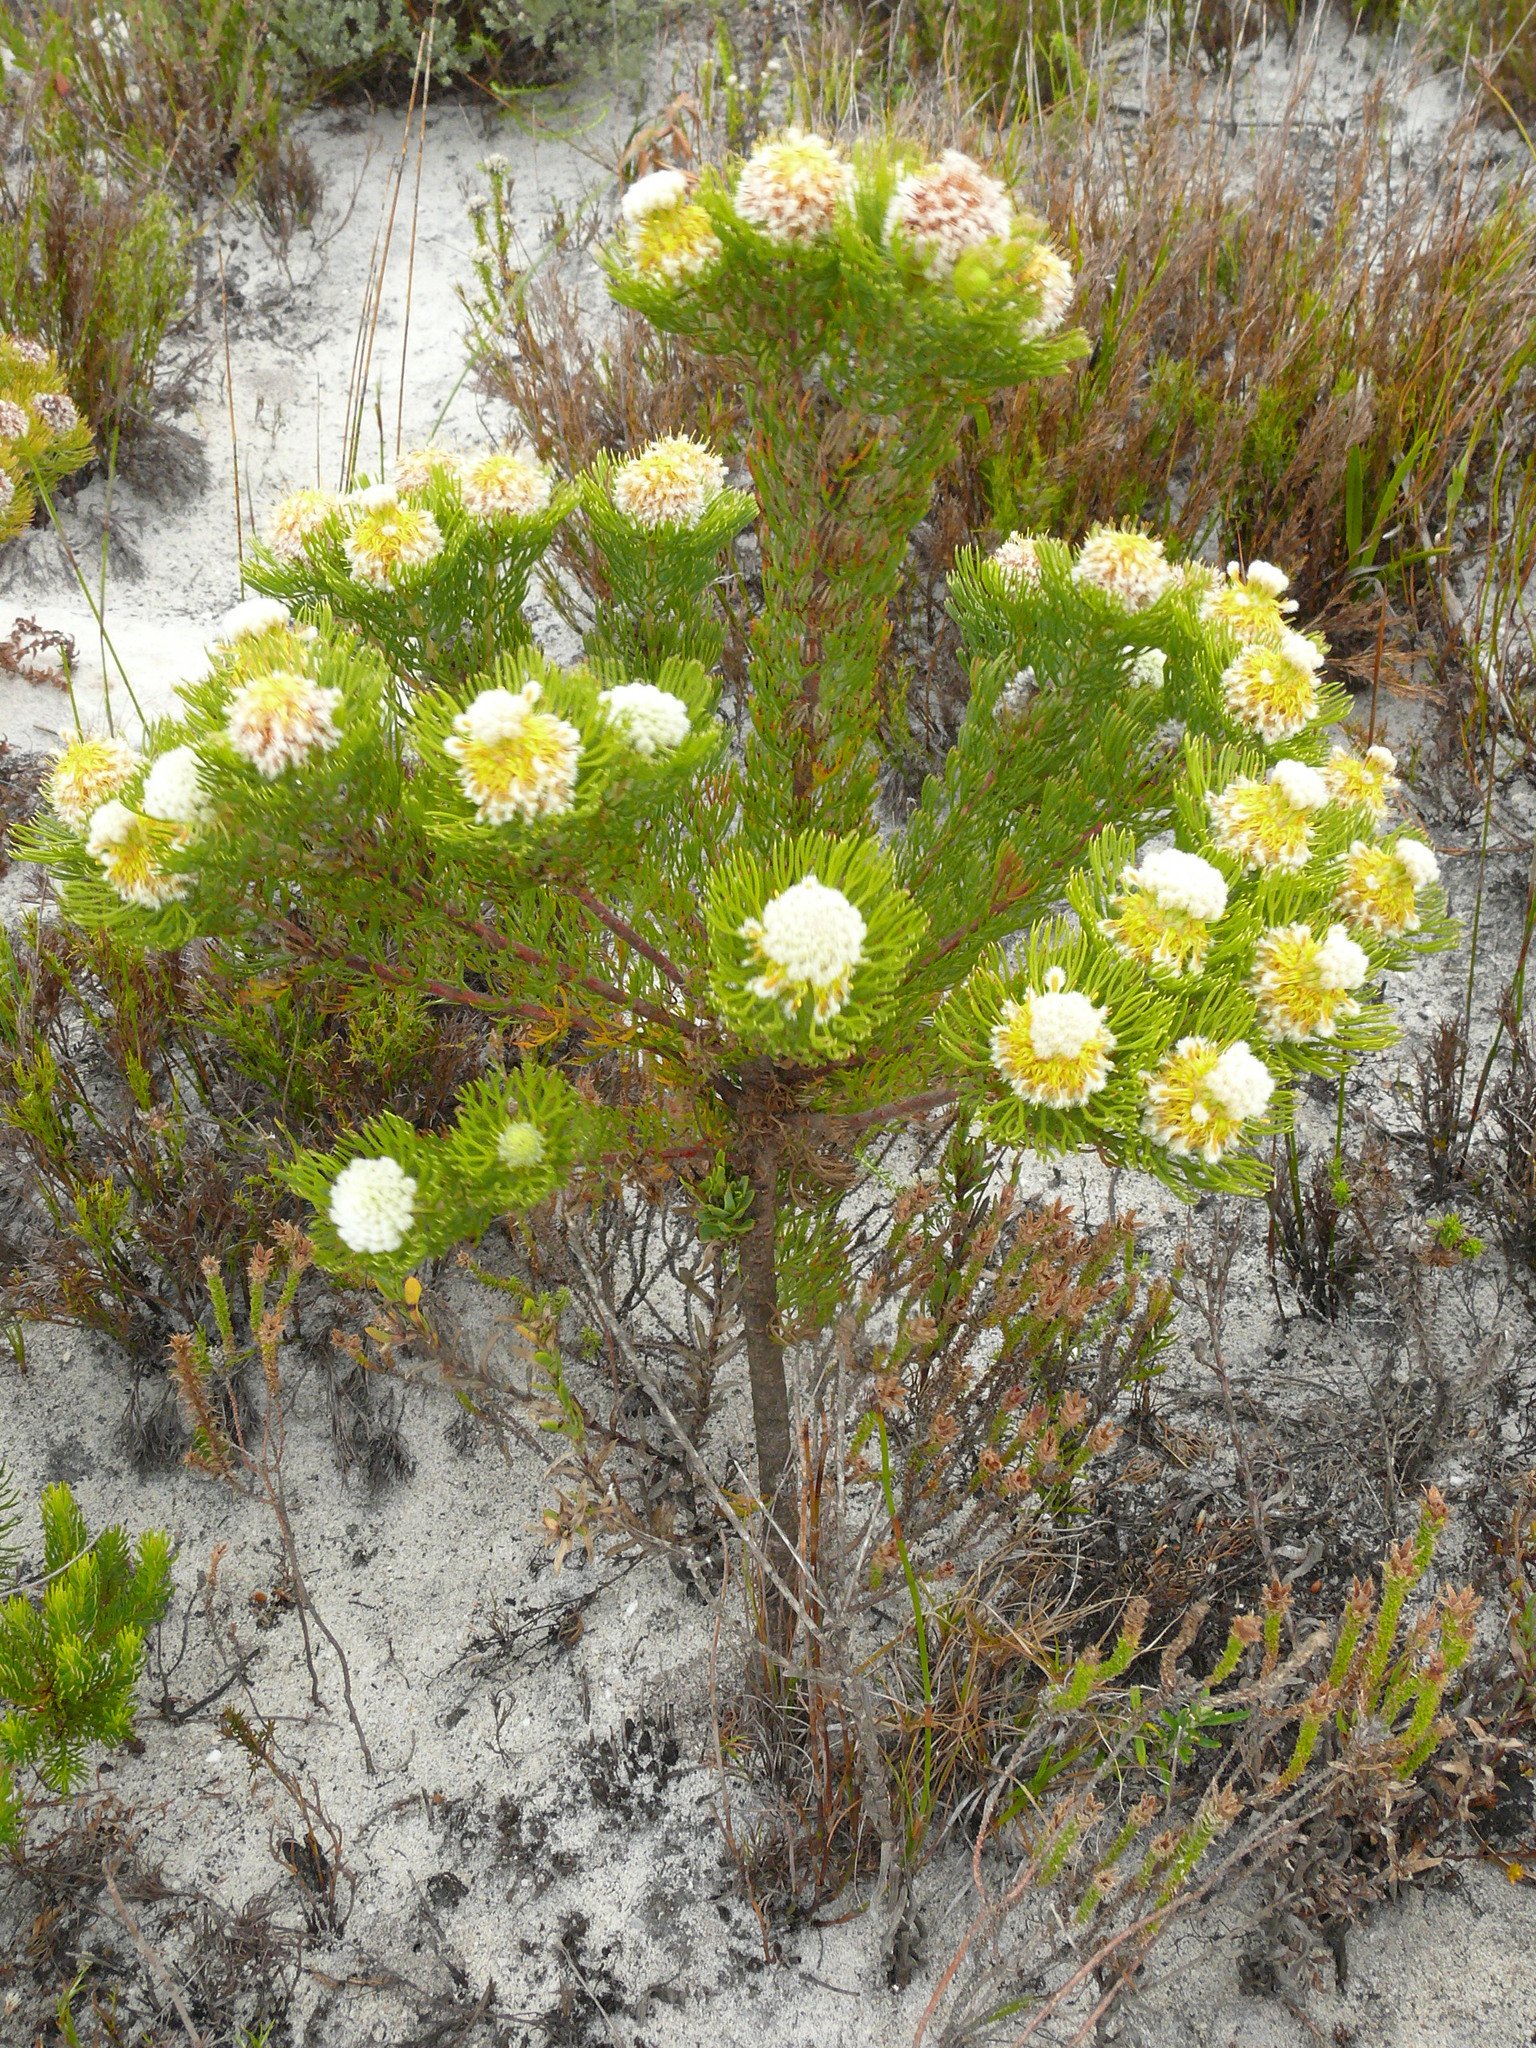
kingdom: Plantae
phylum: Tracheophyta
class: Magnoliopsida
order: Proteales
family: Proteaceae
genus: Serruria
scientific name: Serruria villosa
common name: Golden spiderhead
